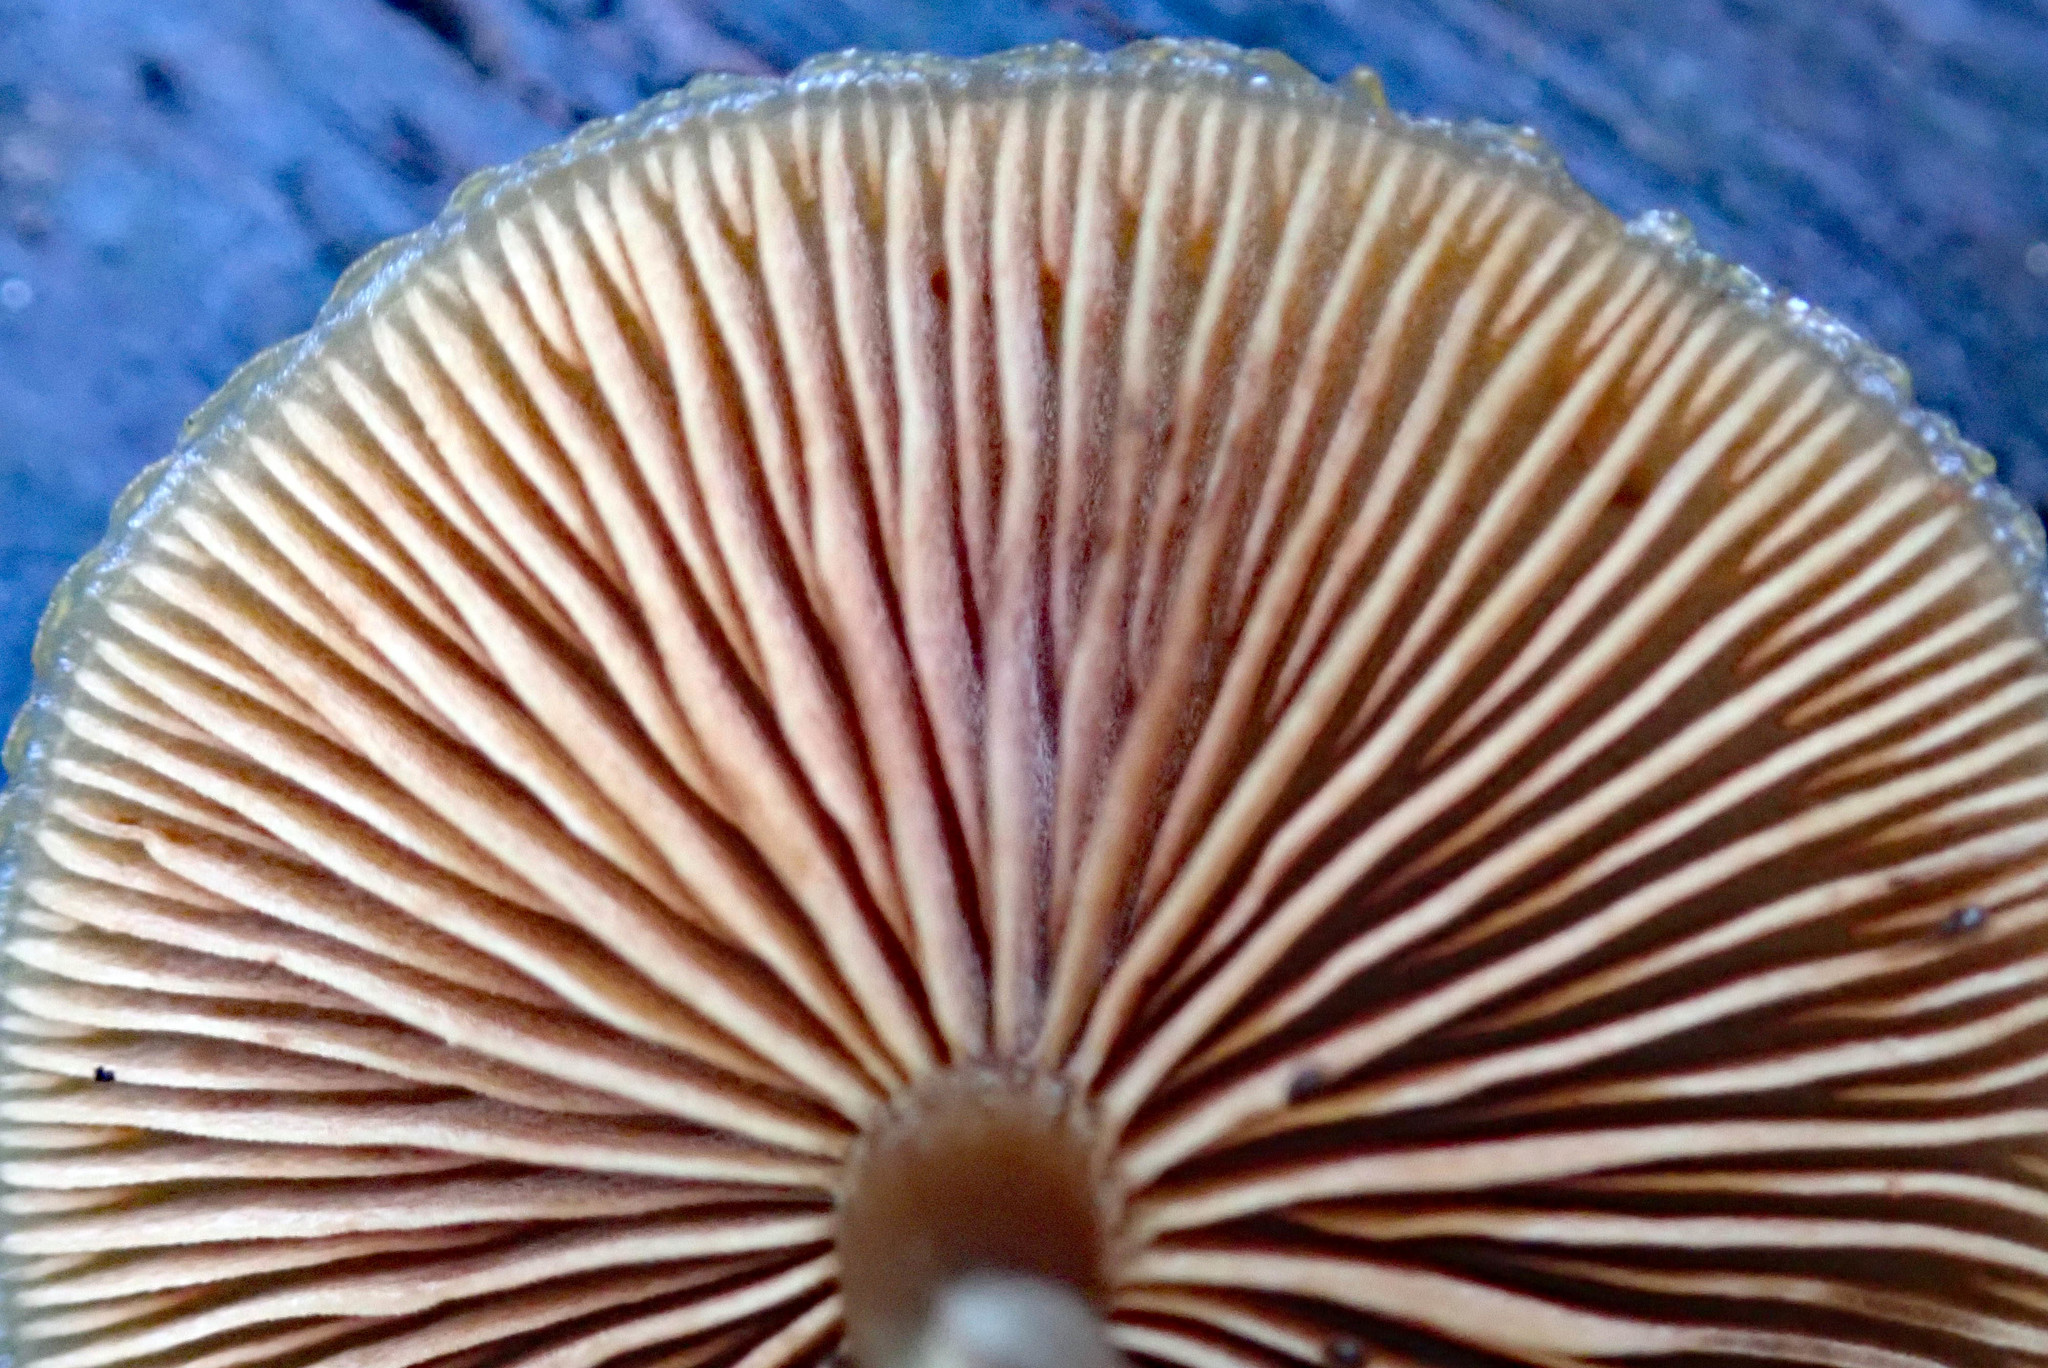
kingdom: Fungi
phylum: Basidiomycota
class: Agaricomycetes
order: Agaricales
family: Hymenogastraceae
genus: Galerina
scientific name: Galerina patagonica
